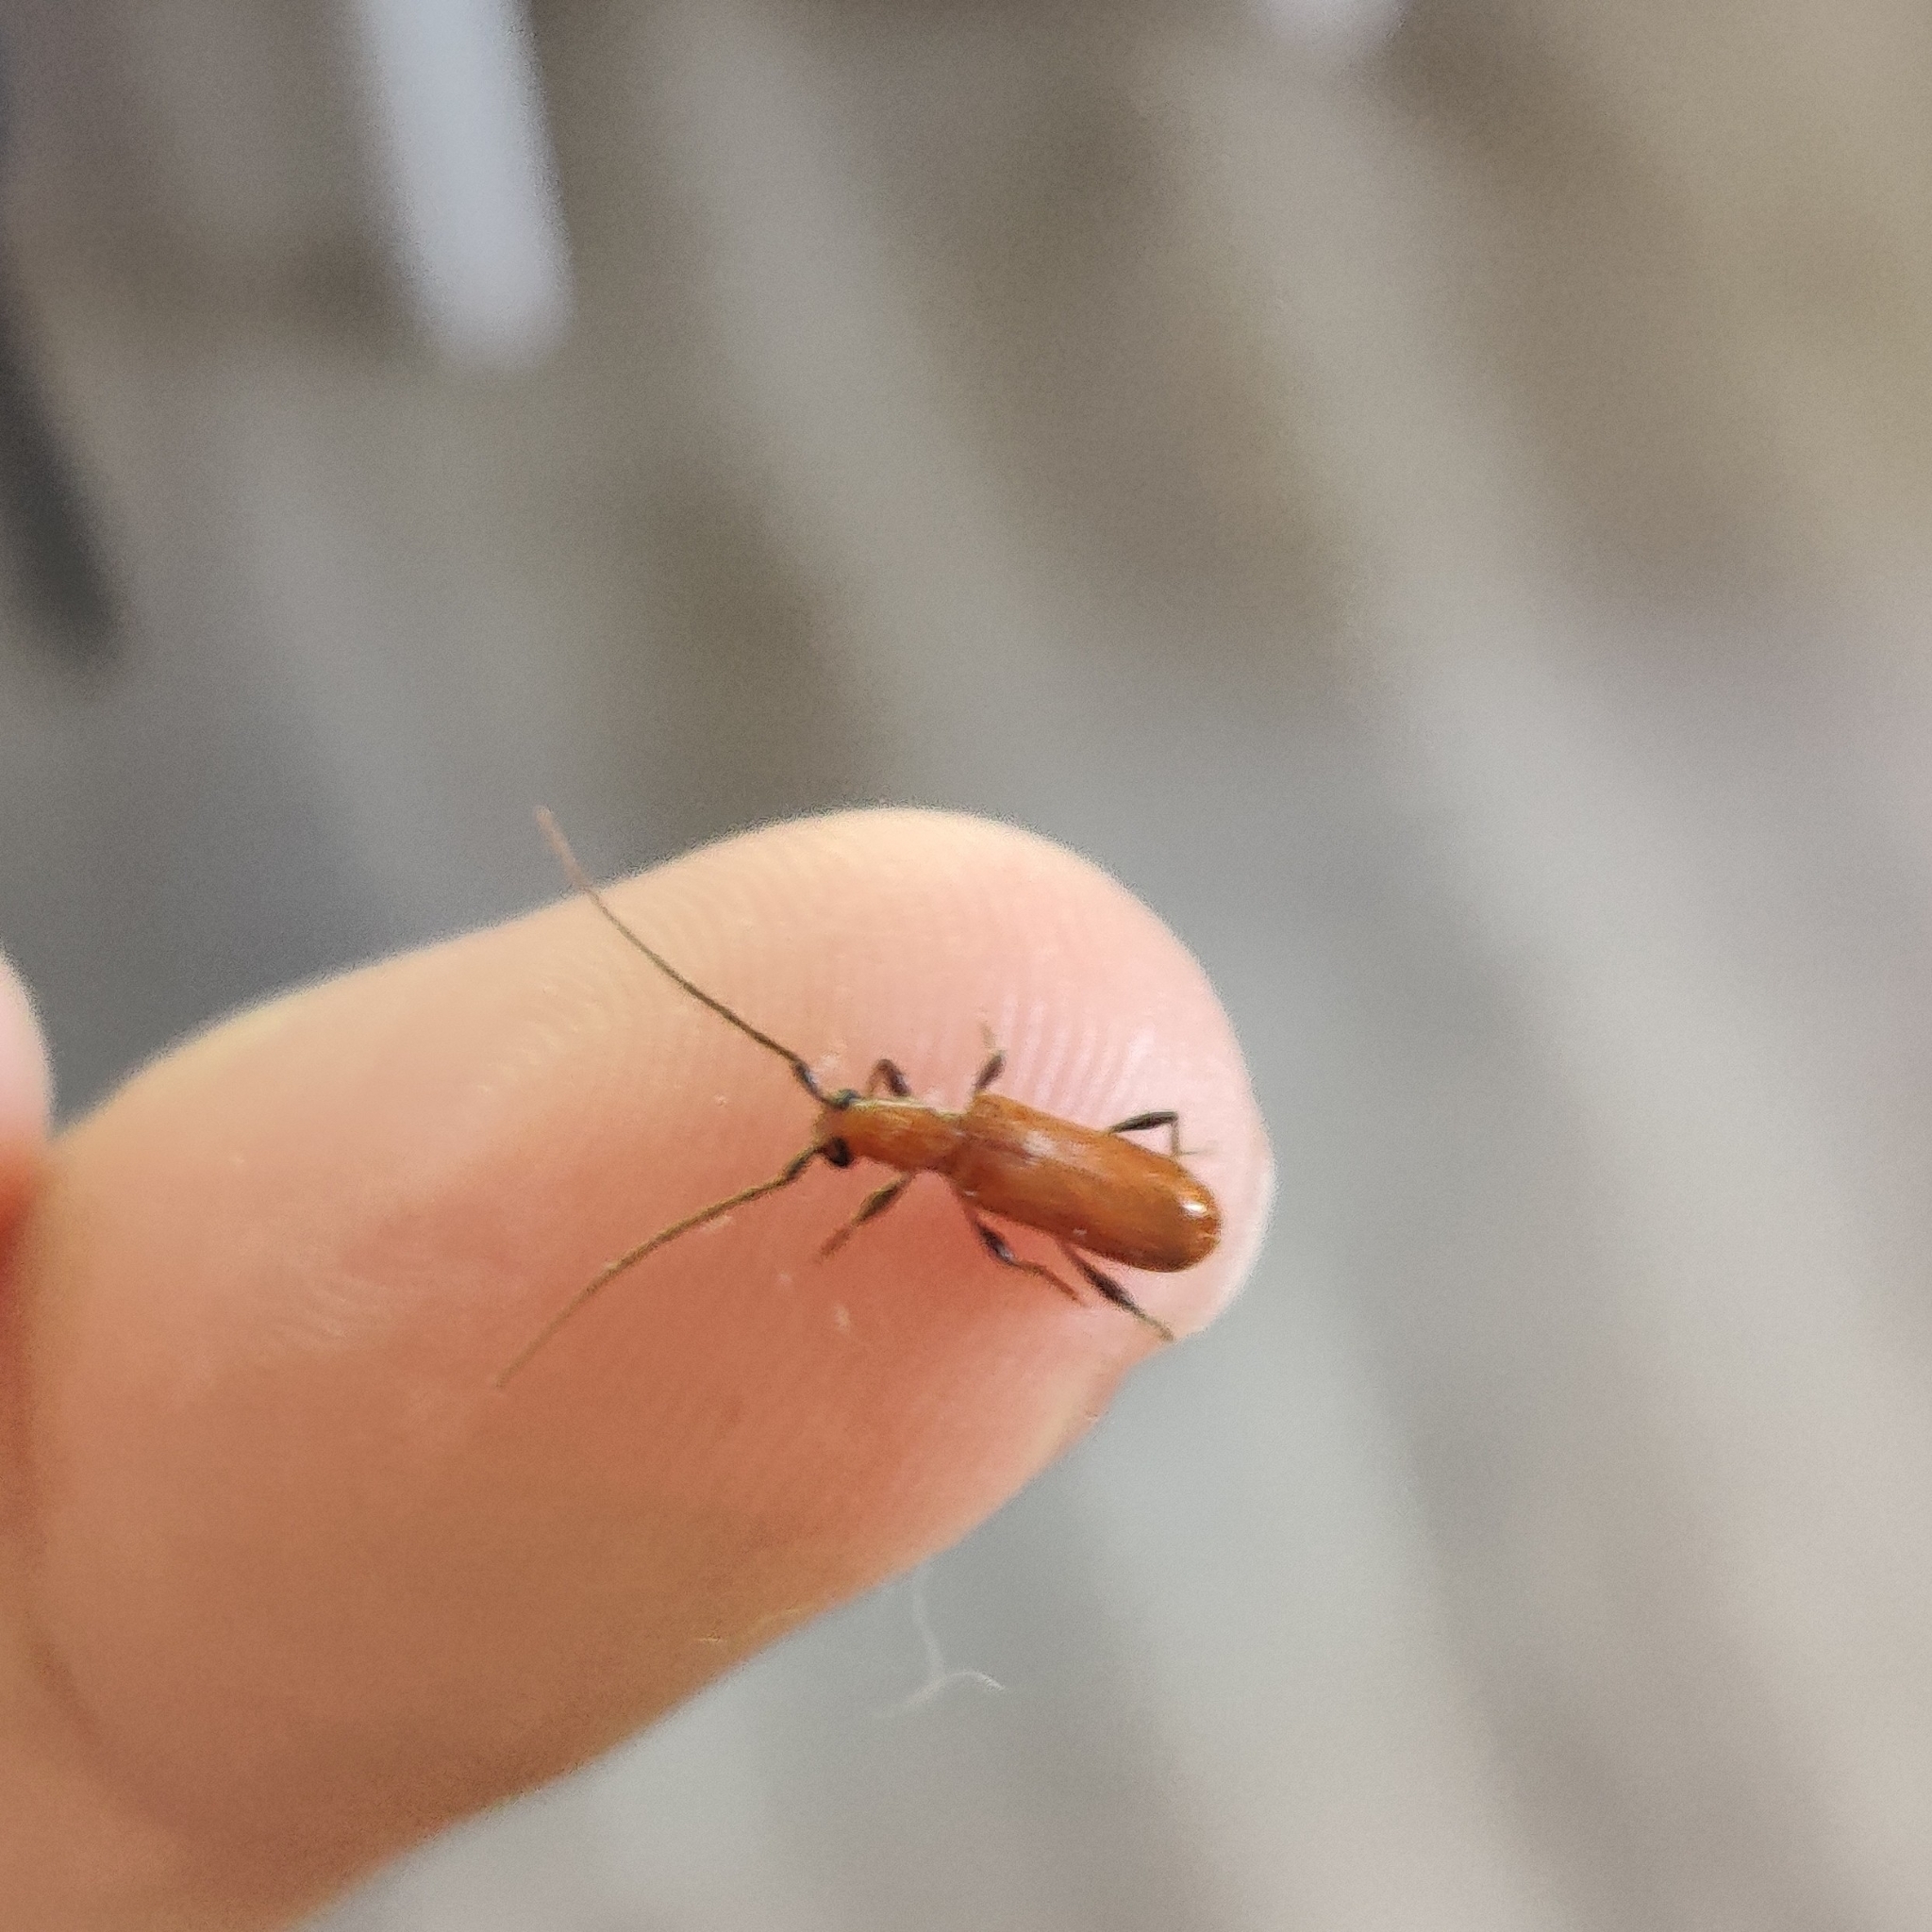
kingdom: Animalia
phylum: Arthropoda
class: Insecta
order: Coleoptera
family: Cerambycidae
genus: Obrium
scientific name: Obrium cantharinum
